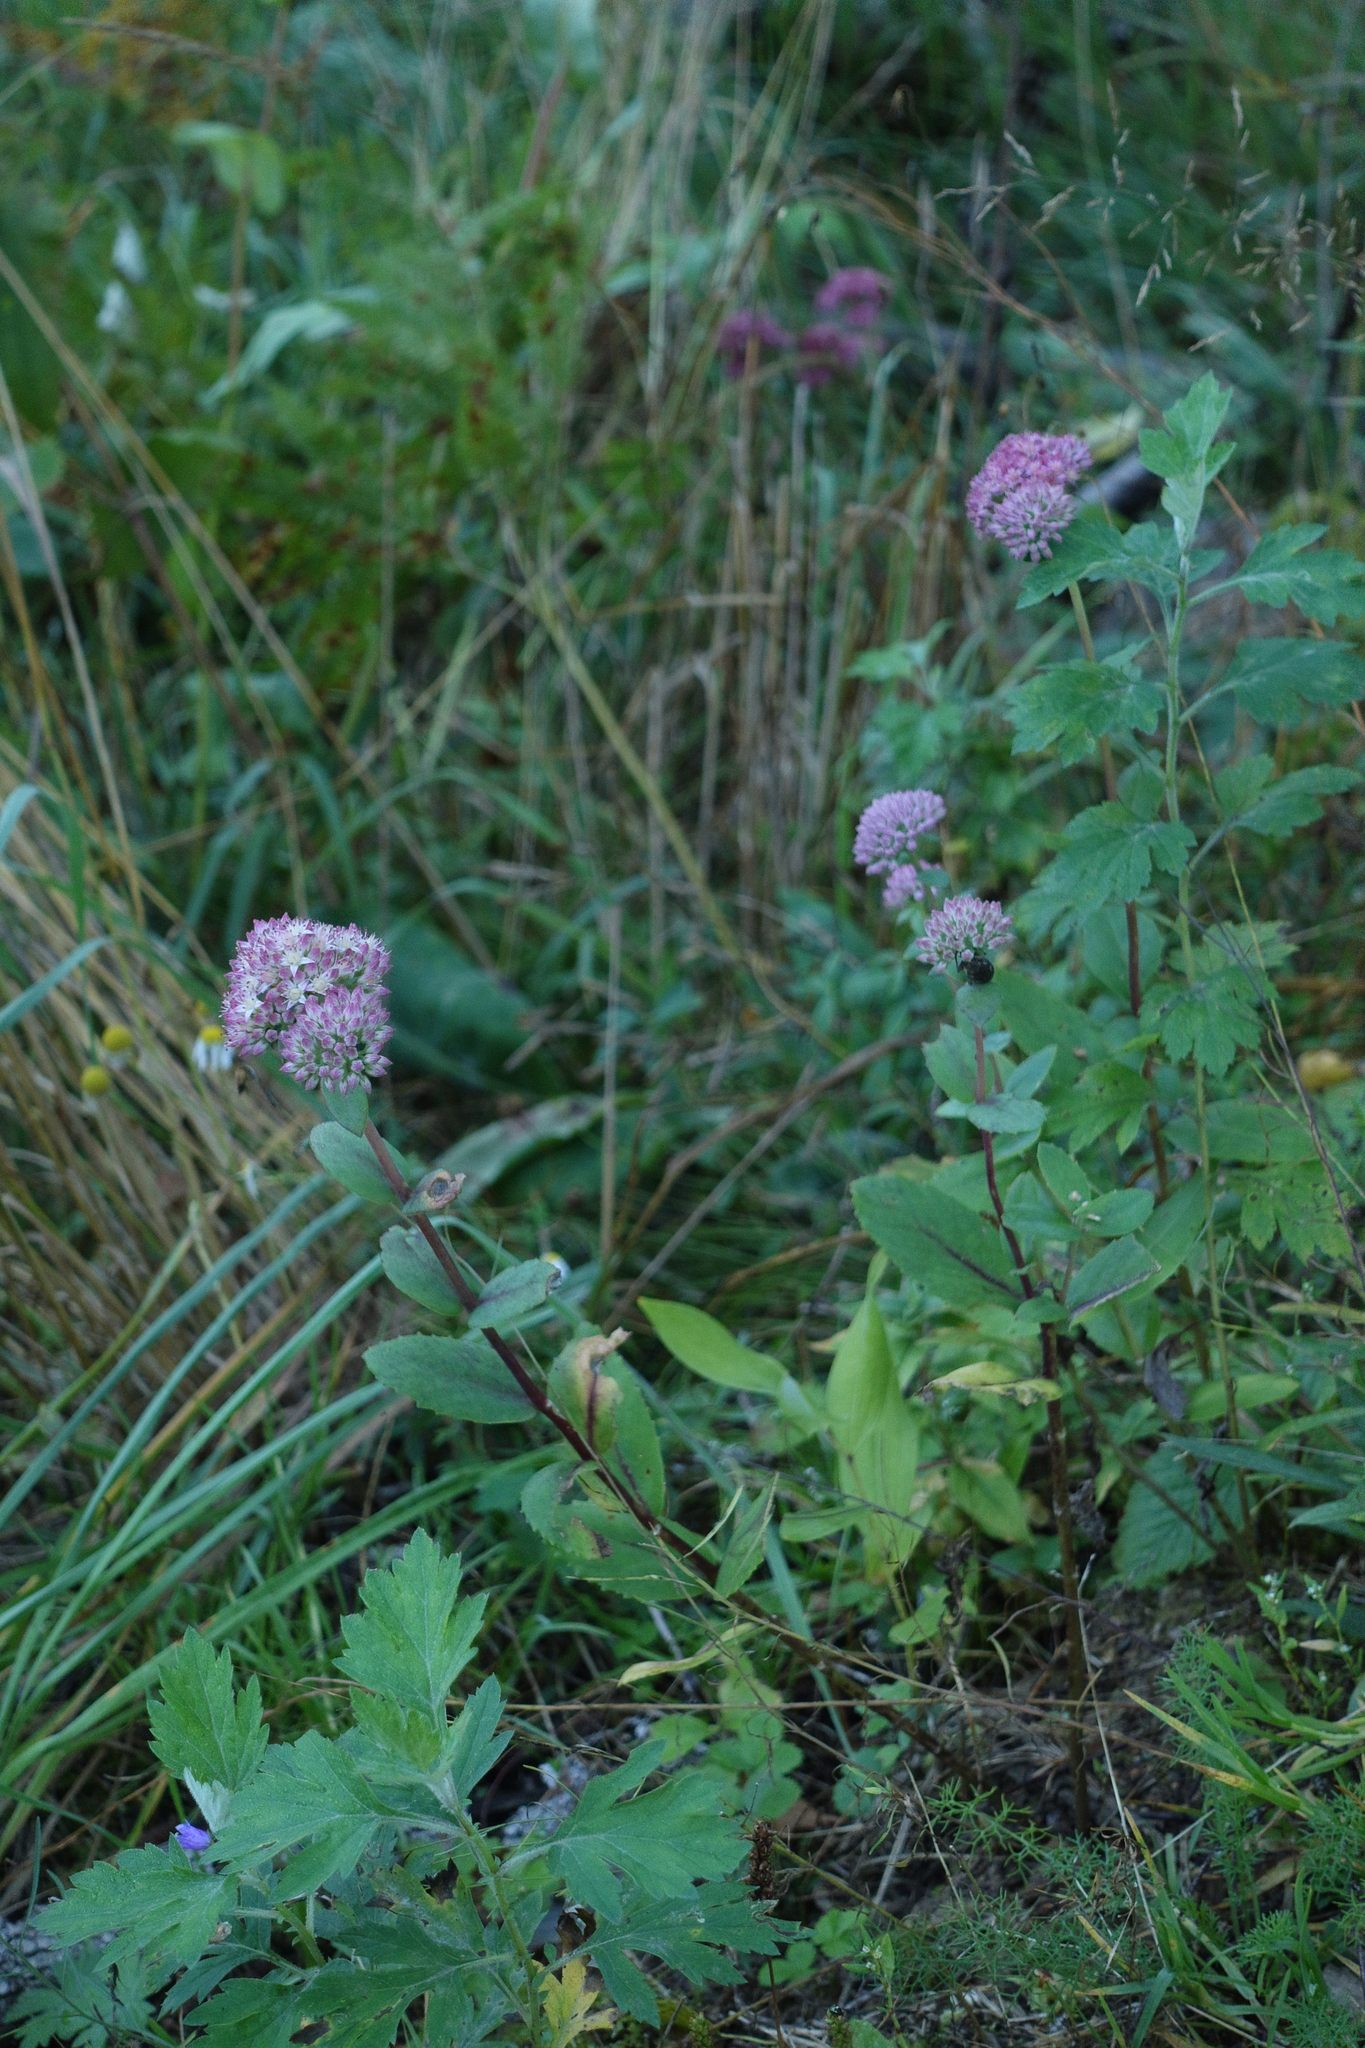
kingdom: Plantae
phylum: Tracheophyta
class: Magnoliopsida
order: Saxifragales
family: Crassulaceae
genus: Hylotelephium
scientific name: Hylotelephium telephium
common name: Live-forever
